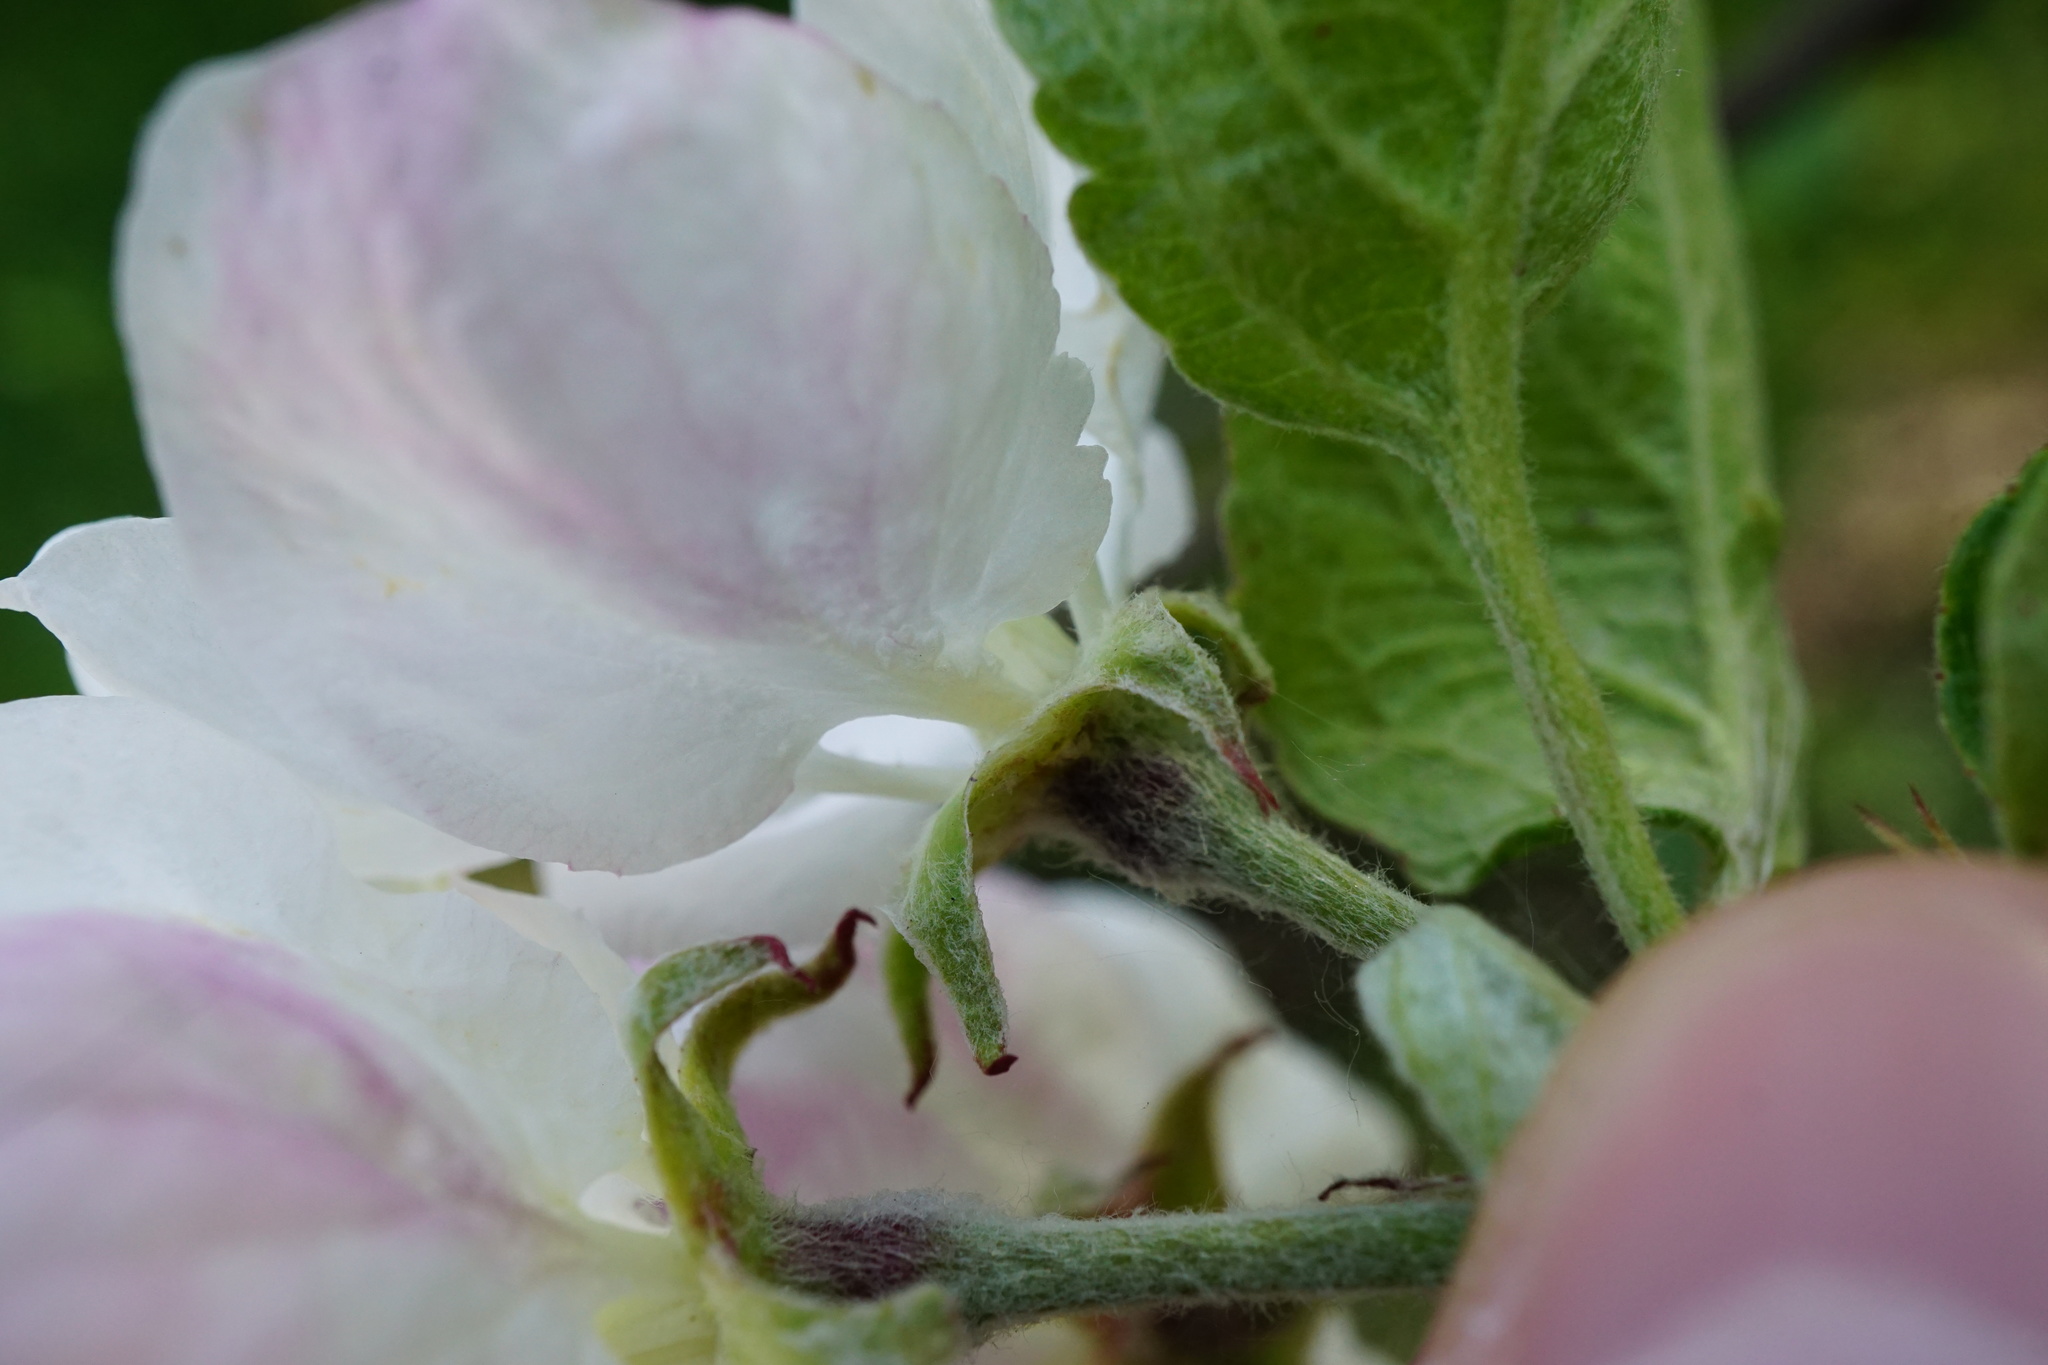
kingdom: Plantae
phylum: Tracheophyta
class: Magnoliopsida
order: Rosales
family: Rosaceae
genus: Malus
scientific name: Malus domestica
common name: Apple
